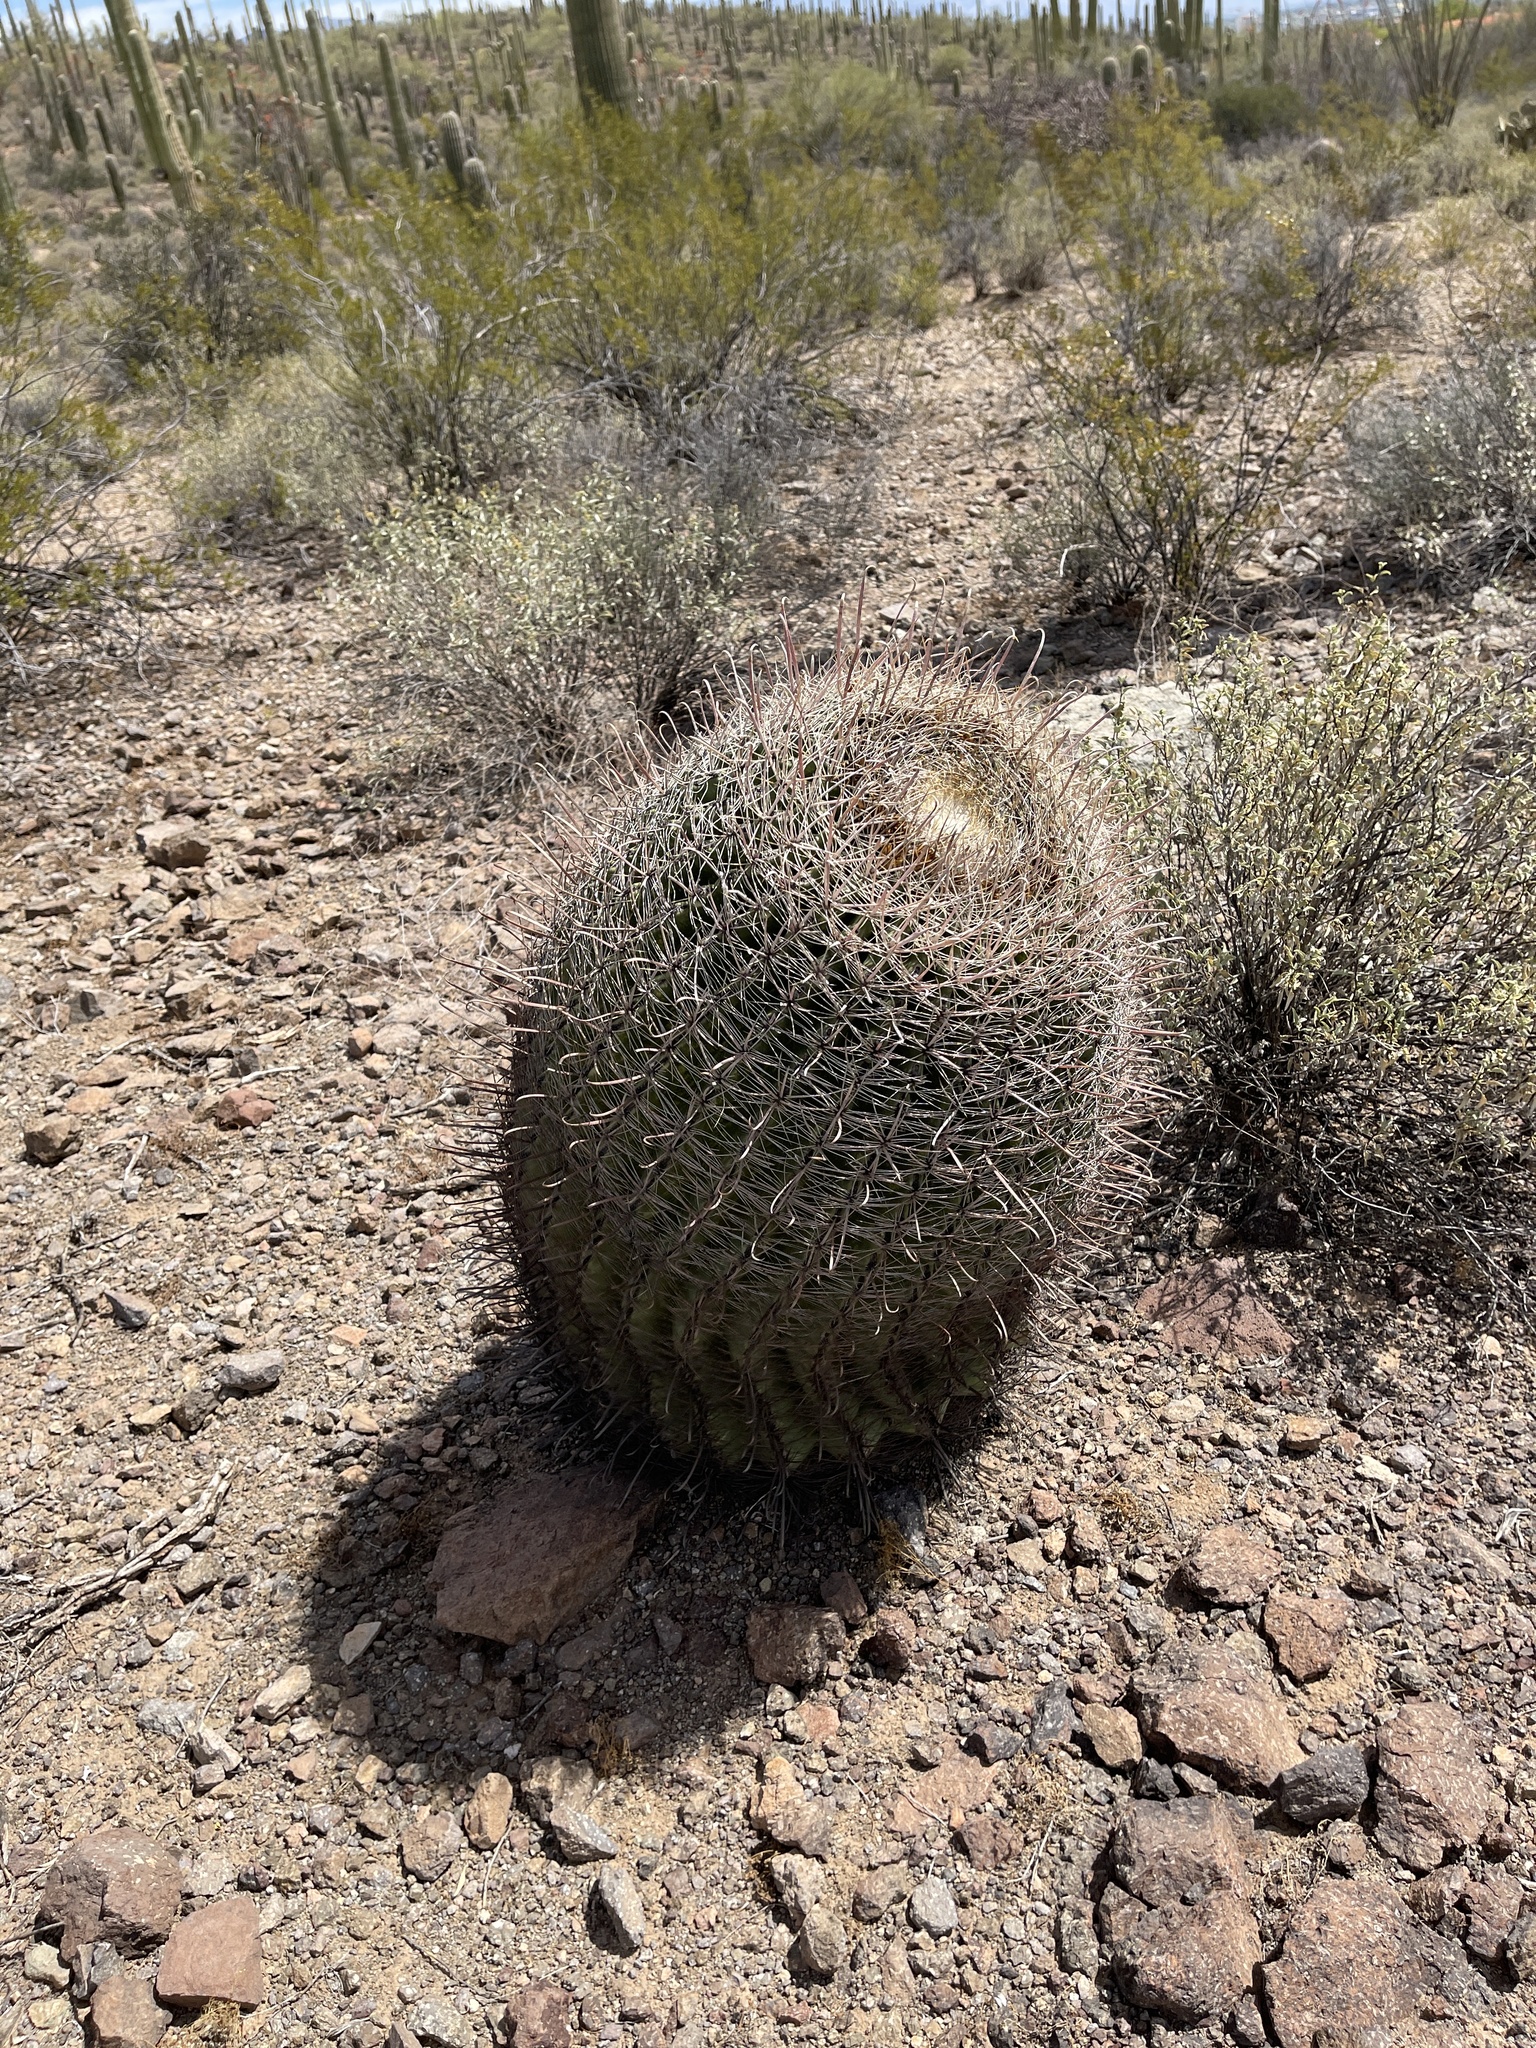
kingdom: Plantae
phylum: Tracheophyta
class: Magnoliopsida
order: Caryophyllales
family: Cactaceae
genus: Ferocactus
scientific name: Ferocactus wislizeni
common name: Candy barrel cactus
